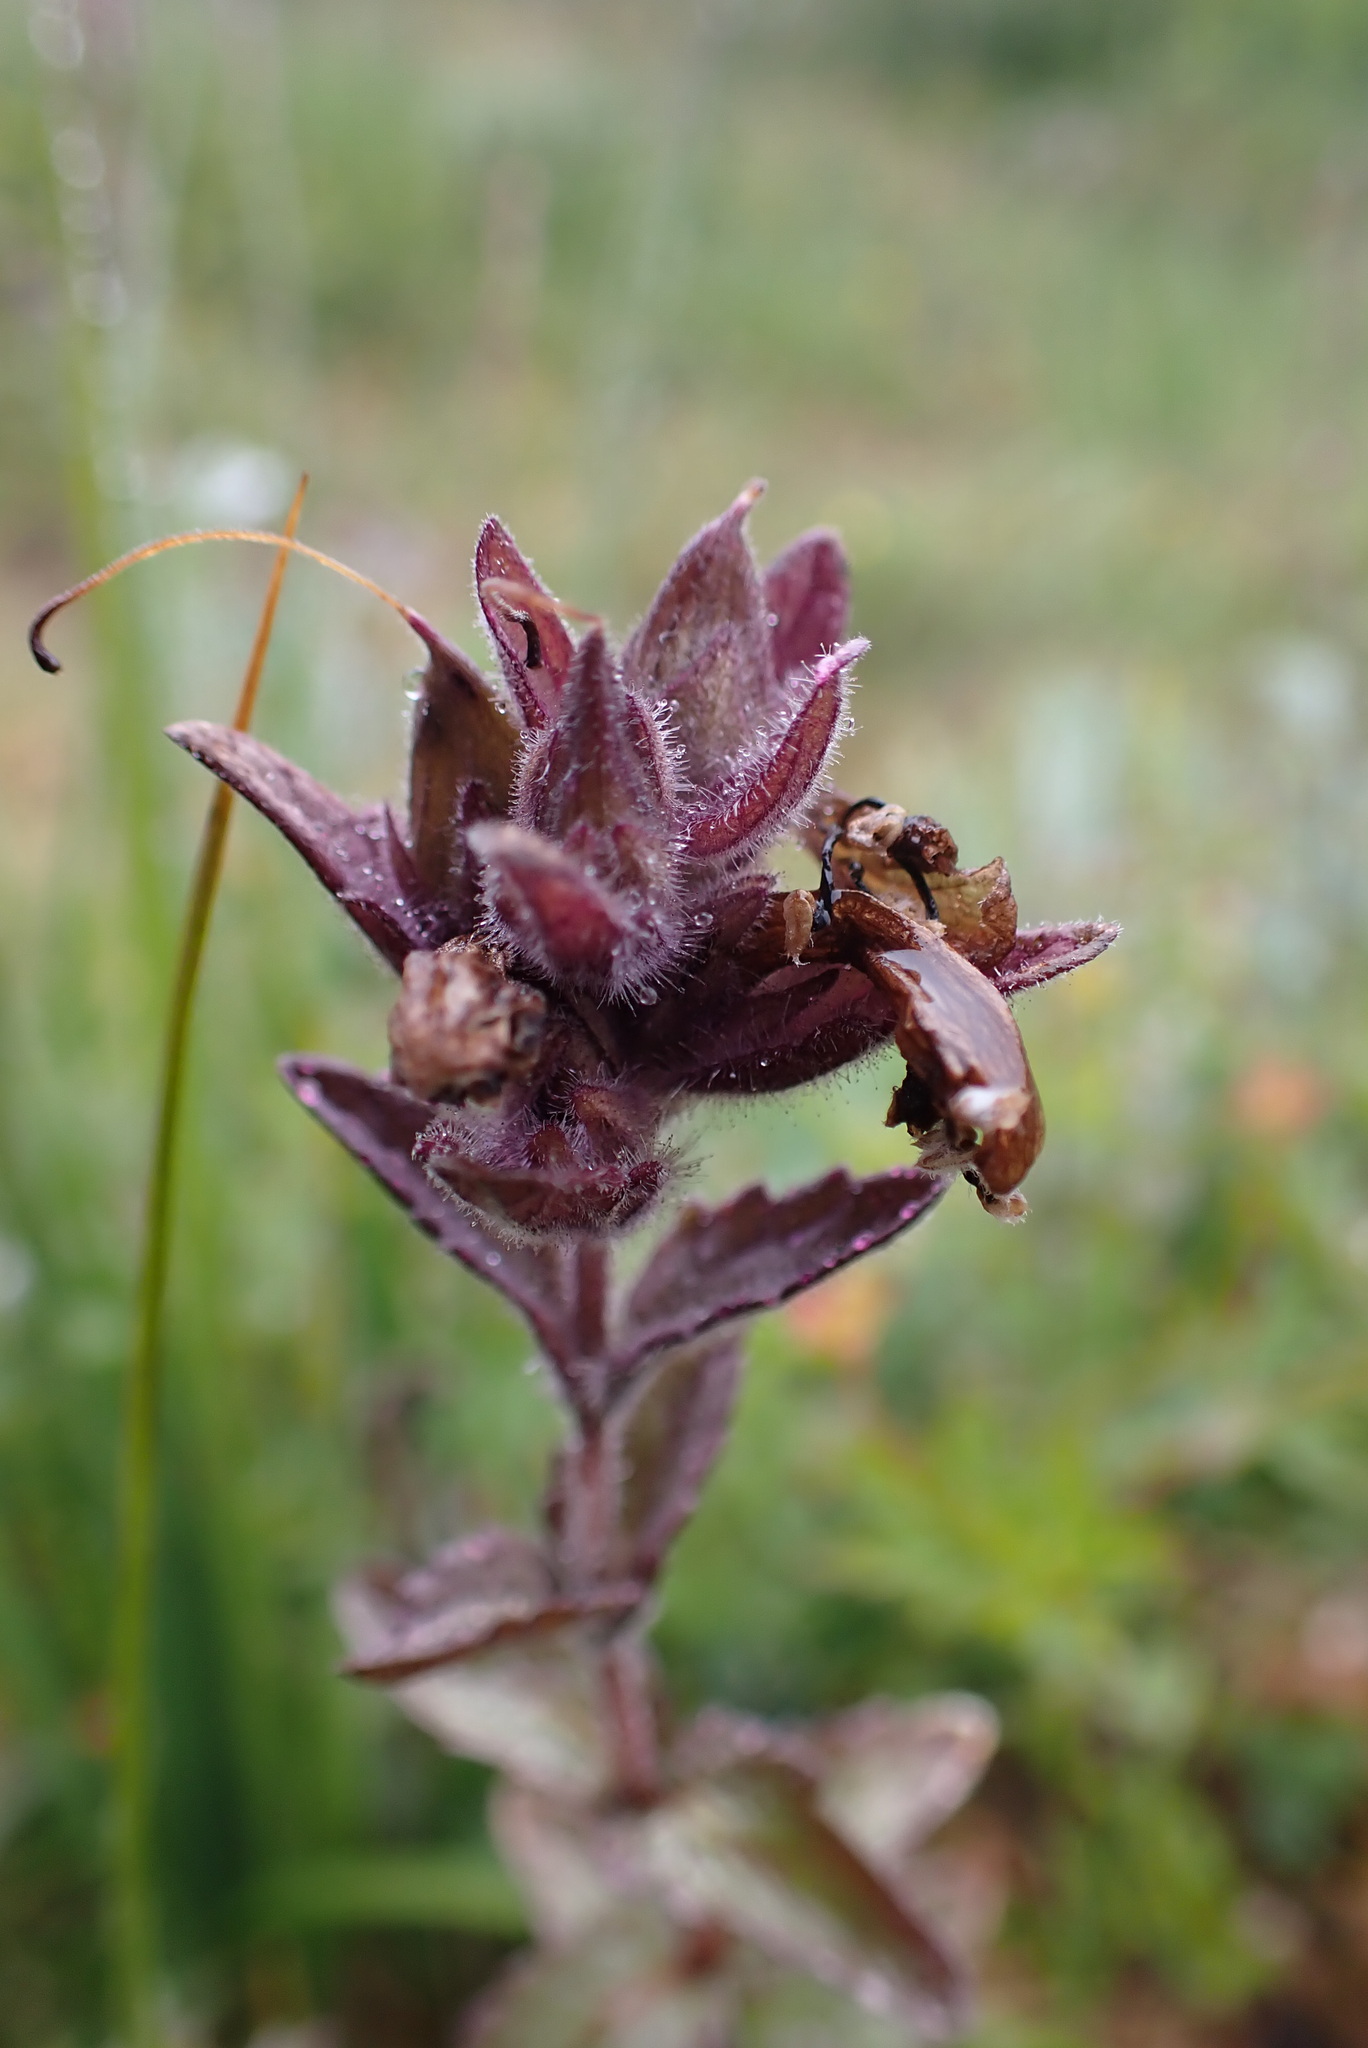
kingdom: Plantae
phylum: Tracheophyta
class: Magnoliopsida
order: Lamiales
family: Orobanchaceae
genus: Bartsia
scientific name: Bartsia alpina
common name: Alpine bartsia
